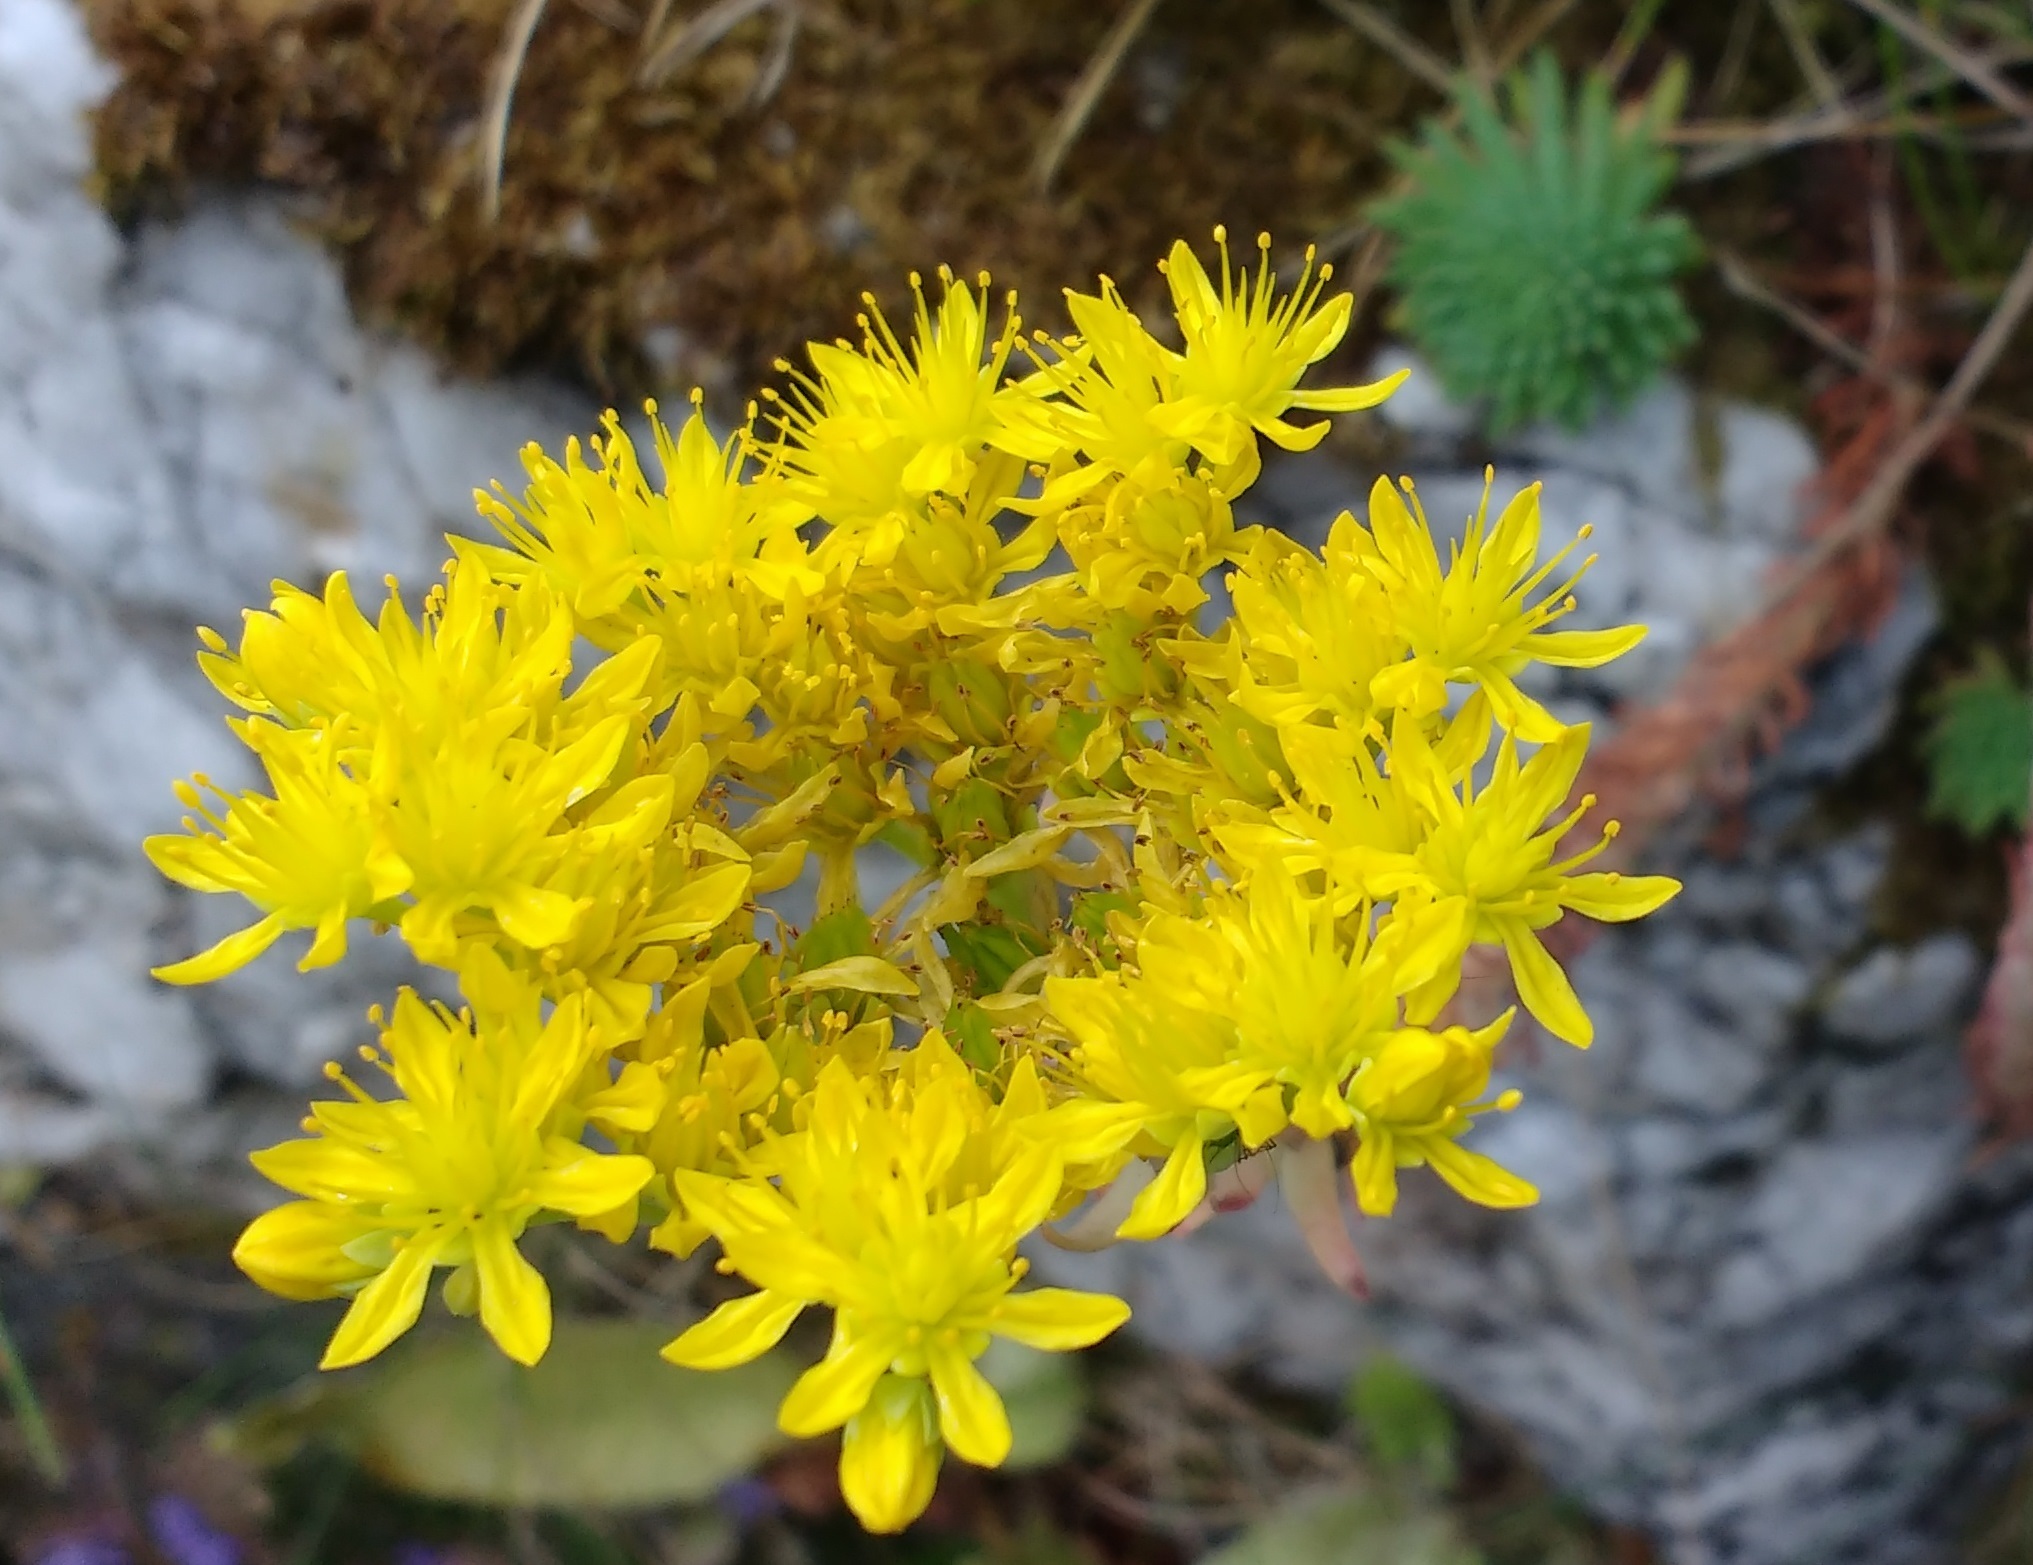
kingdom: Plantae
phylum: Tracheophyta
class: Magnoliopsida
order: Saxifragales
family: Crassulaceae
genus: Petrosedum
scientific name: Petrosedum rupestre
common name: Jenny's stonecrop
